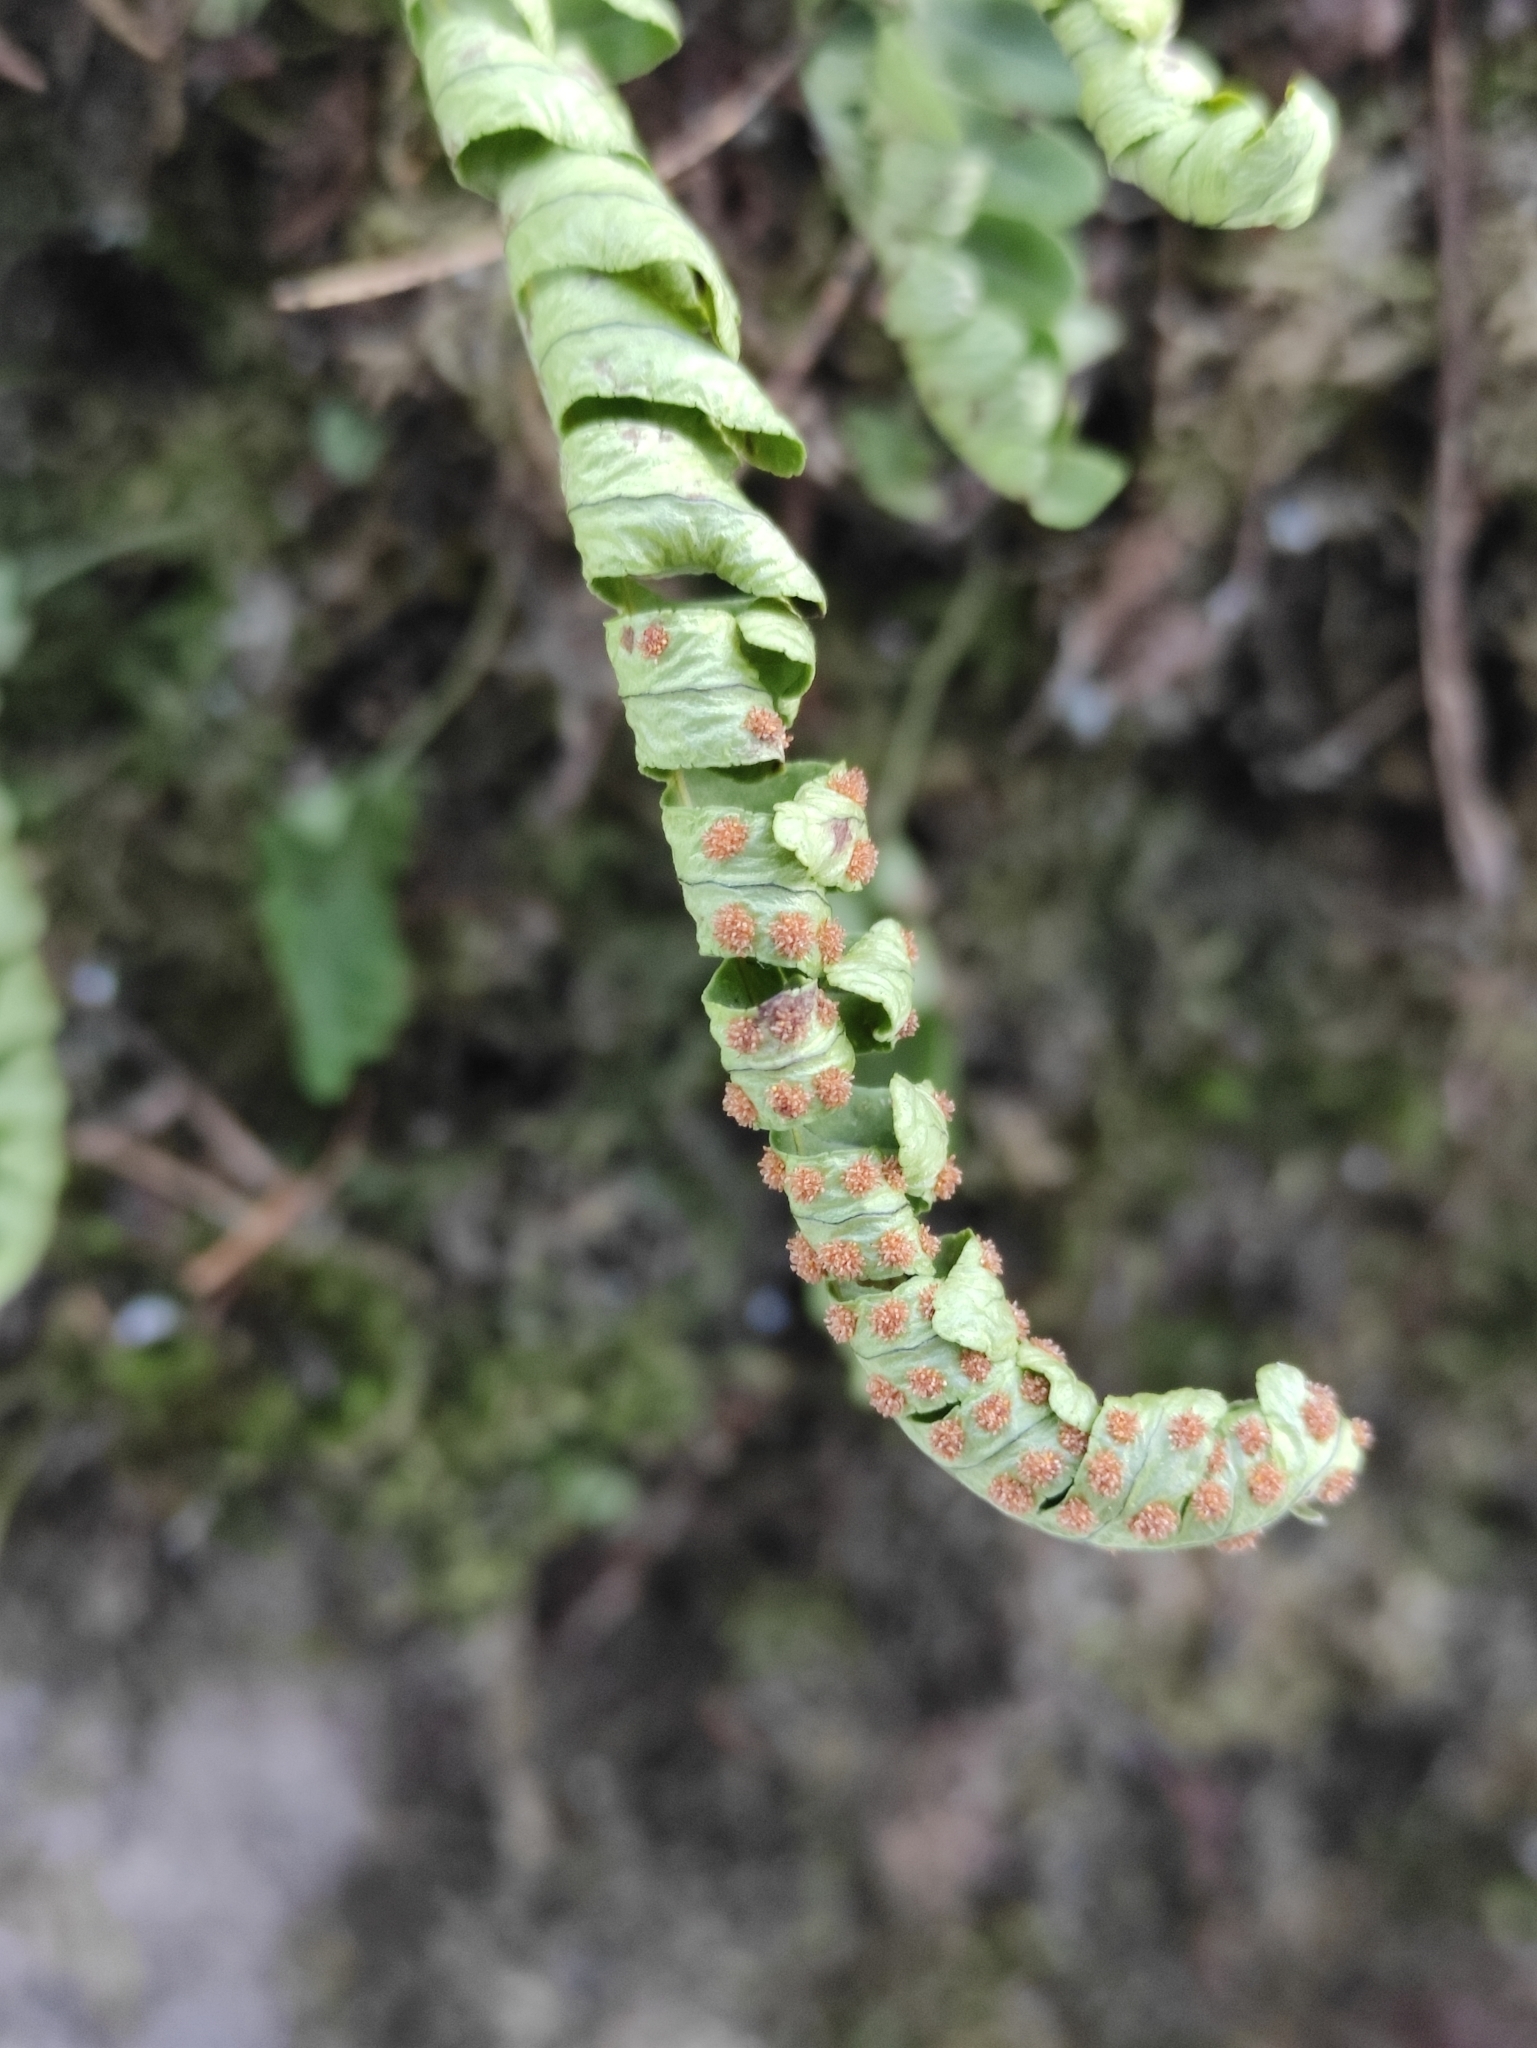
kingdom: Plantae
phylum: Tracheophyta
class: Polypodiopsida
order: Polypodiales
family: Polypodiaceae
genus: Polypodium
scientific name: Polypodium sibiricum
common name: Siberian polypody
